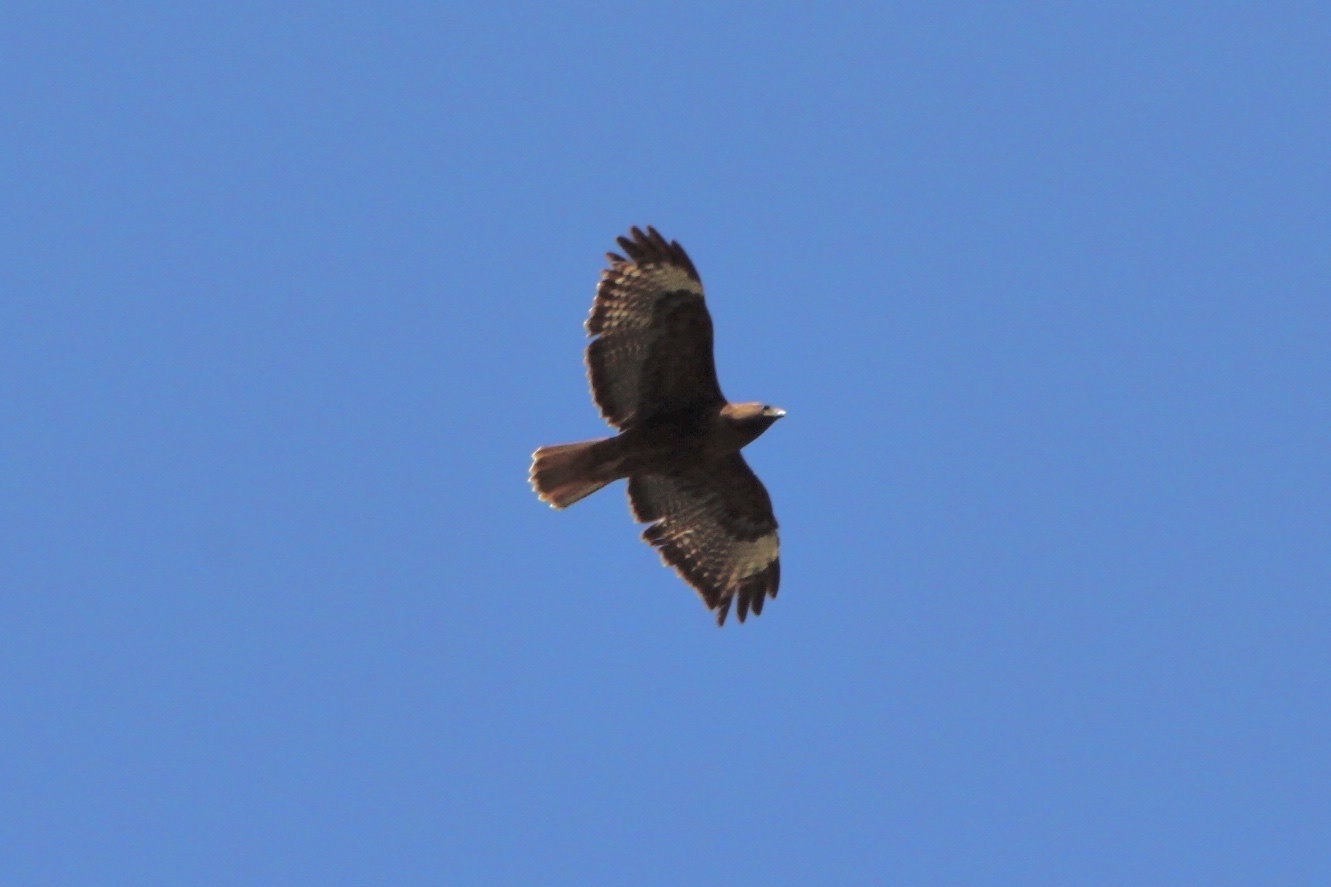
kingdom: Animalia
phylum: Chordata
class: Aves
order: Accipitriformes
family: Accipitridae
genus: Buteo
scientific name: Buteo jamaicensis
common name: Red-tailed hawk
